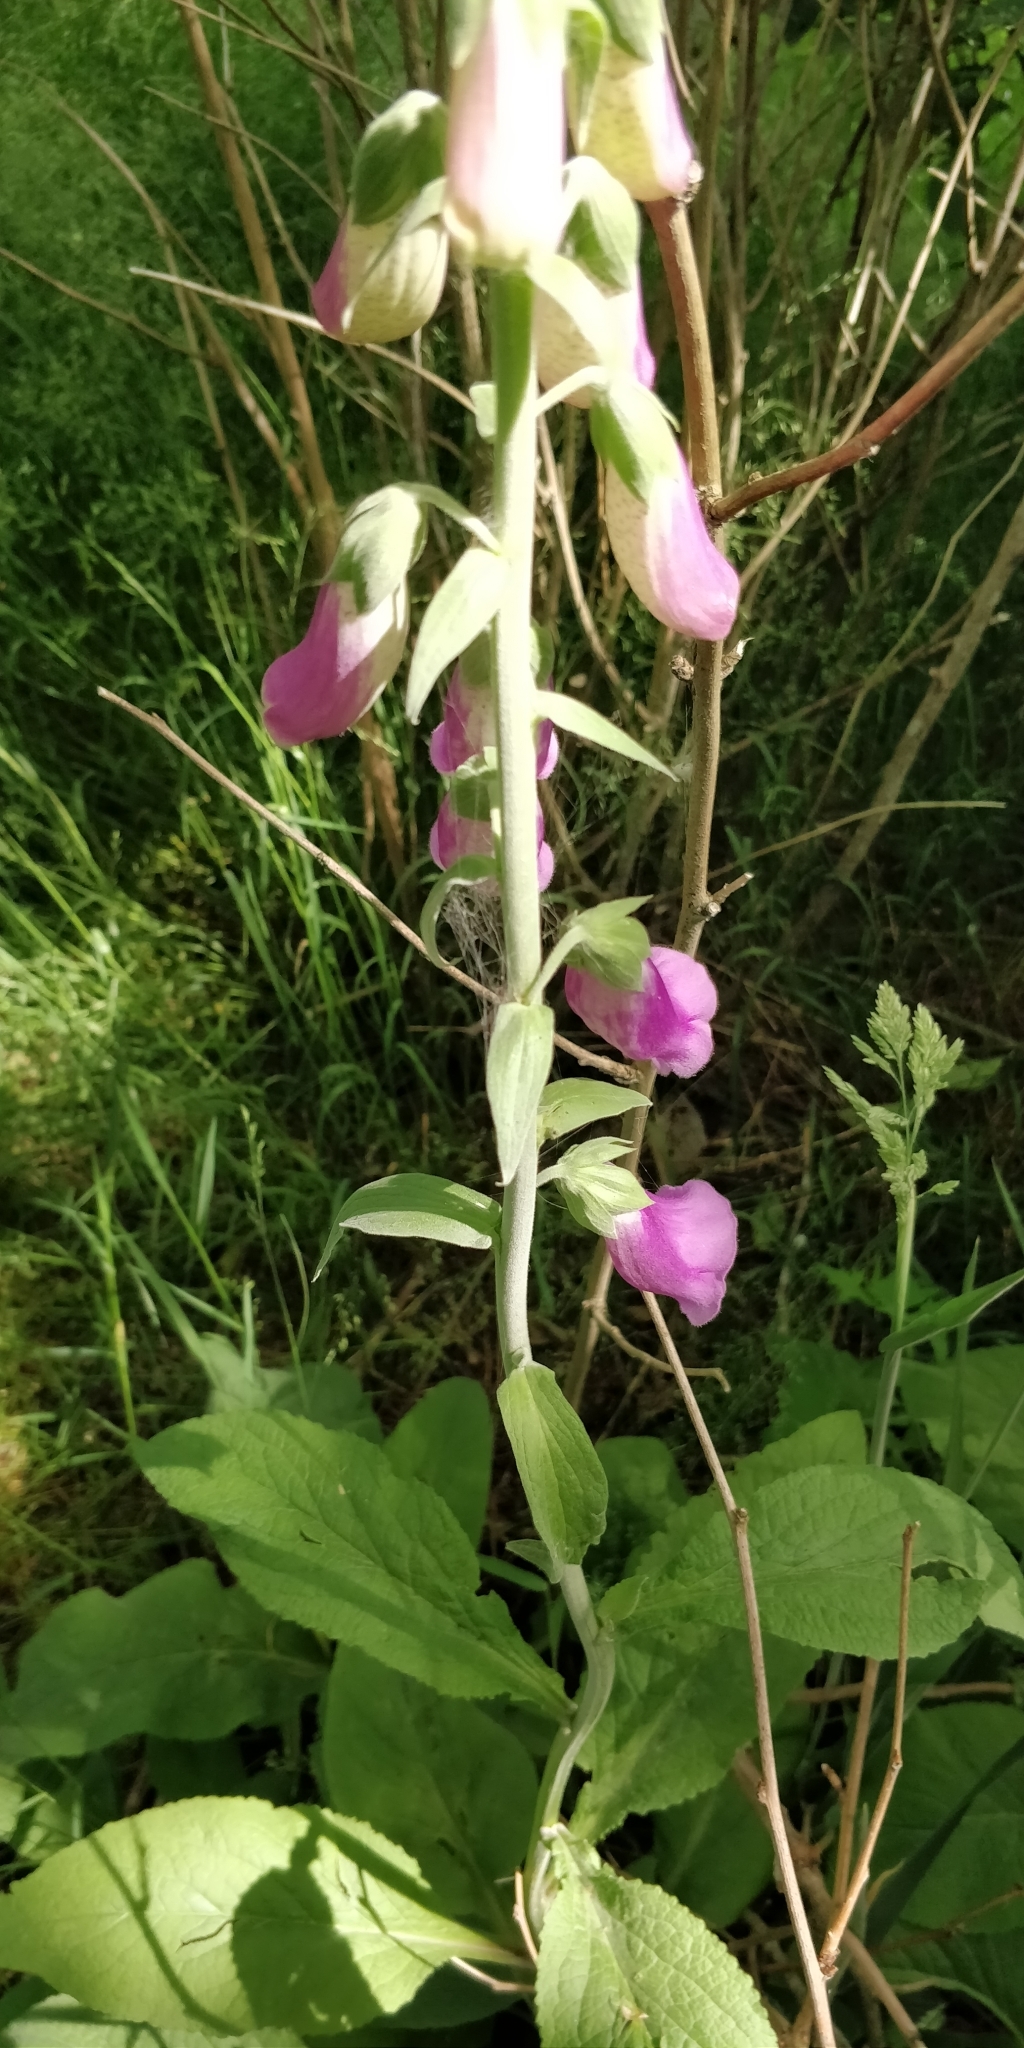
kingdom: Plantae
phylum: Tracheophyta
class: Magnoliopsida
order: Lamiales
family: Plantaginaceae
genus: Digitalis
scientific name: Digitalis purpurea
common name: Foxglove
